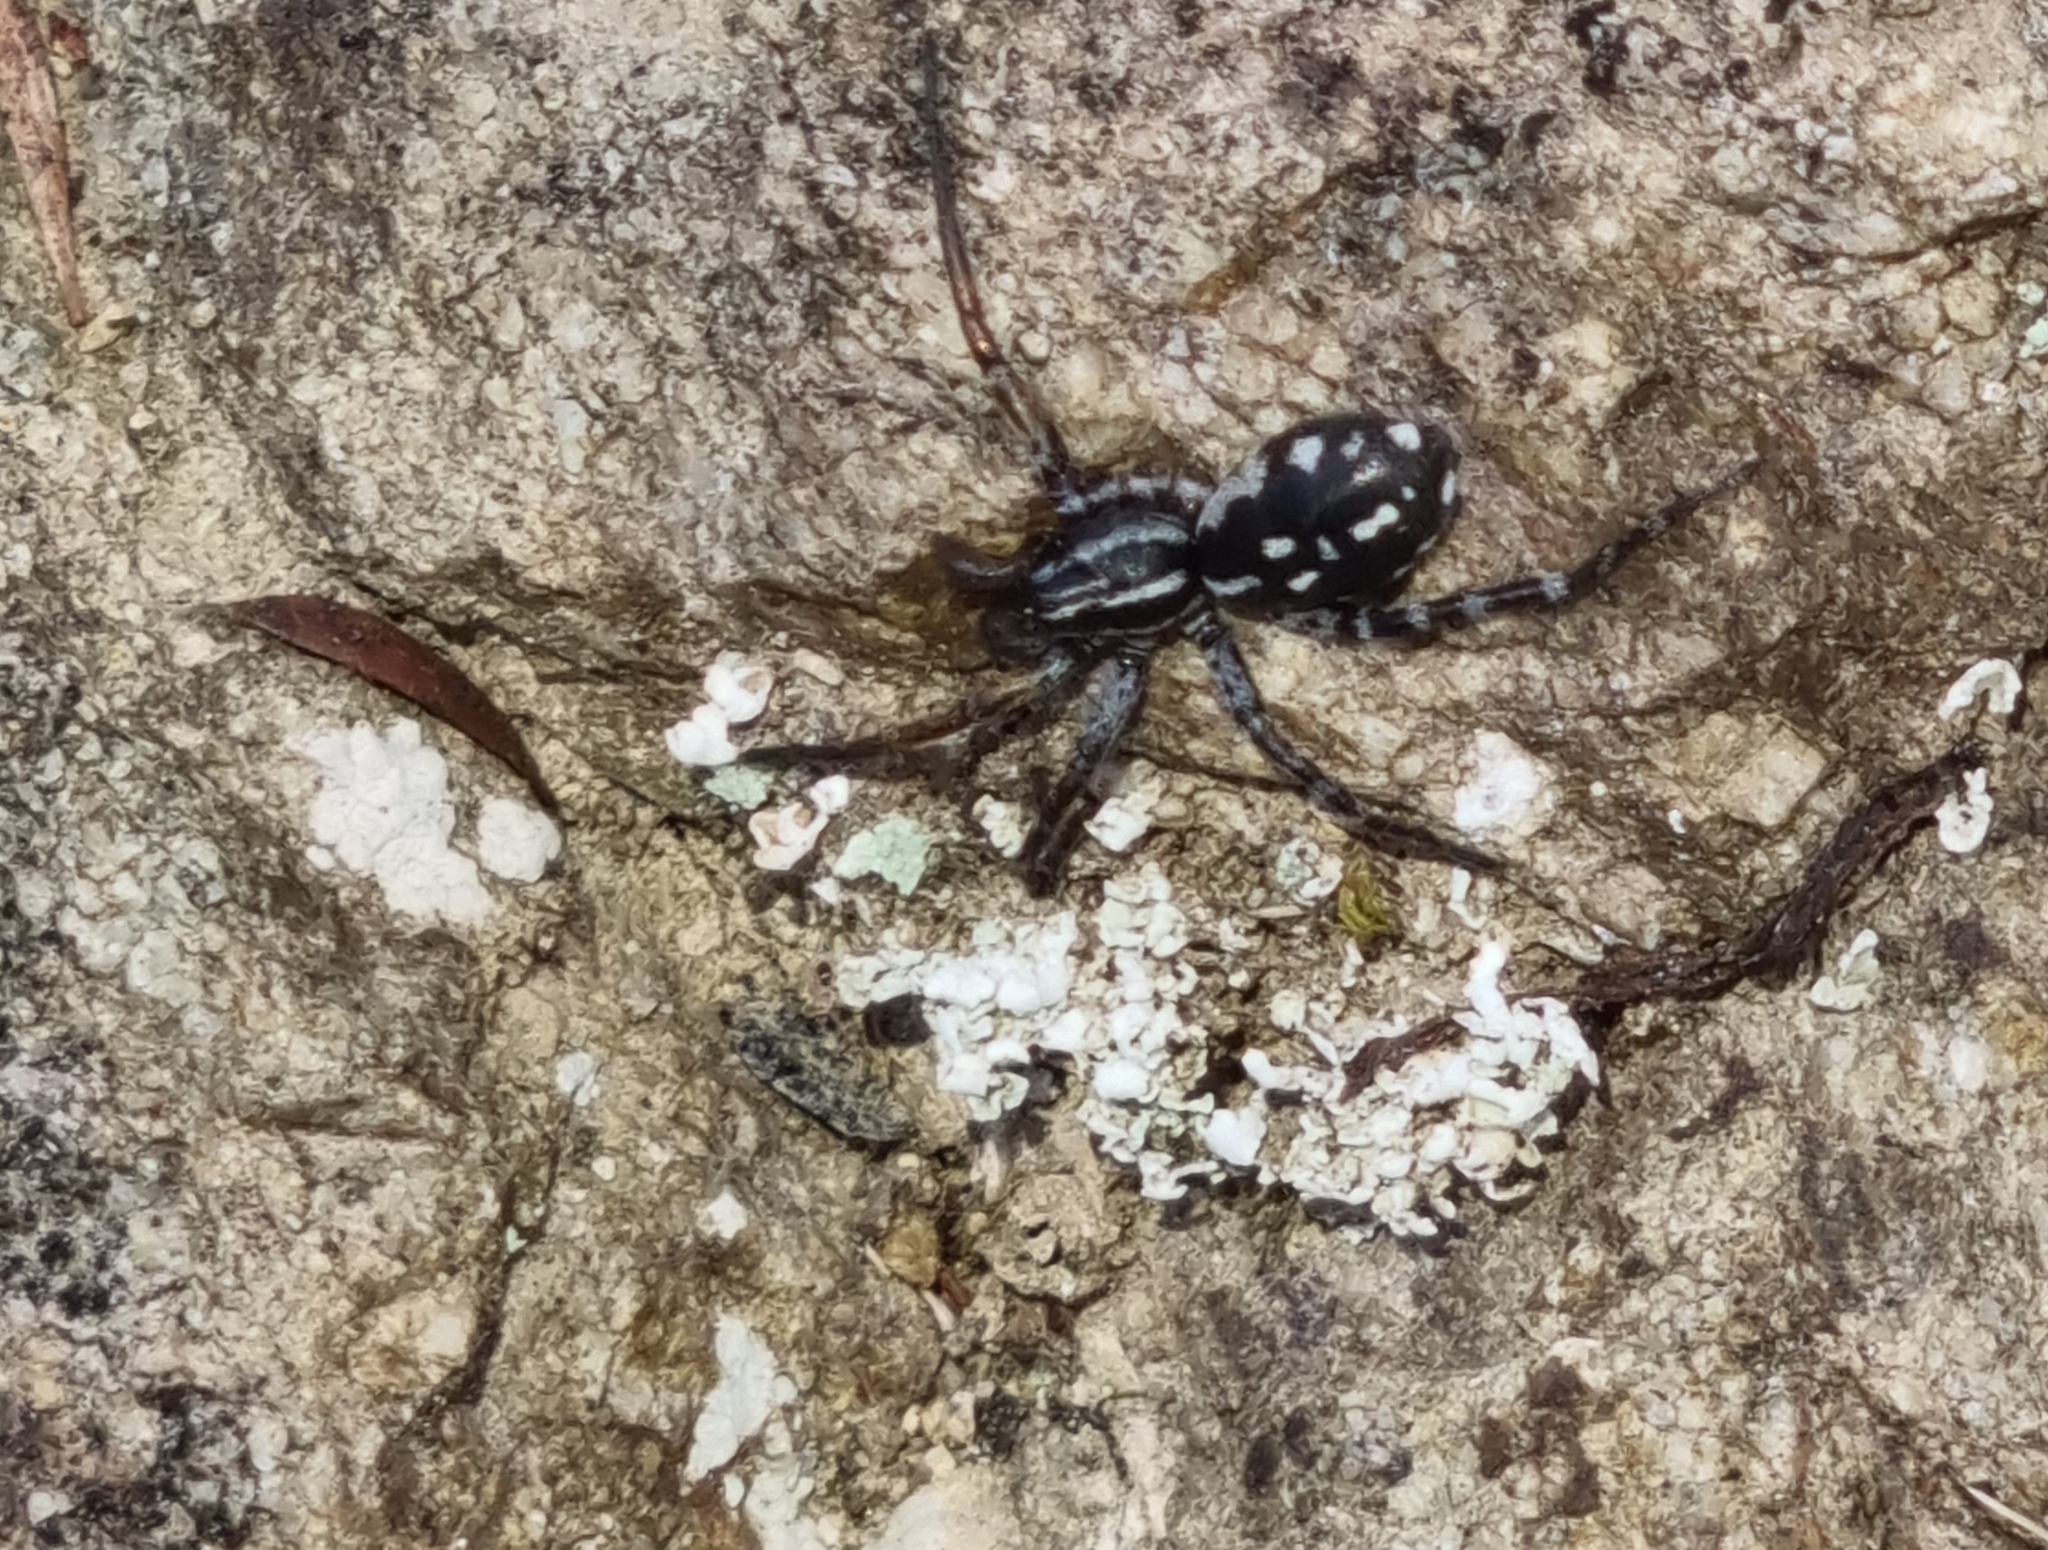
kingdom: Animalia
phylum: Arthropoda
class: Arachnida
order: Araneae
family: Corinnidae
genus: Nyssus
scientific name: Nyssus coloripes
